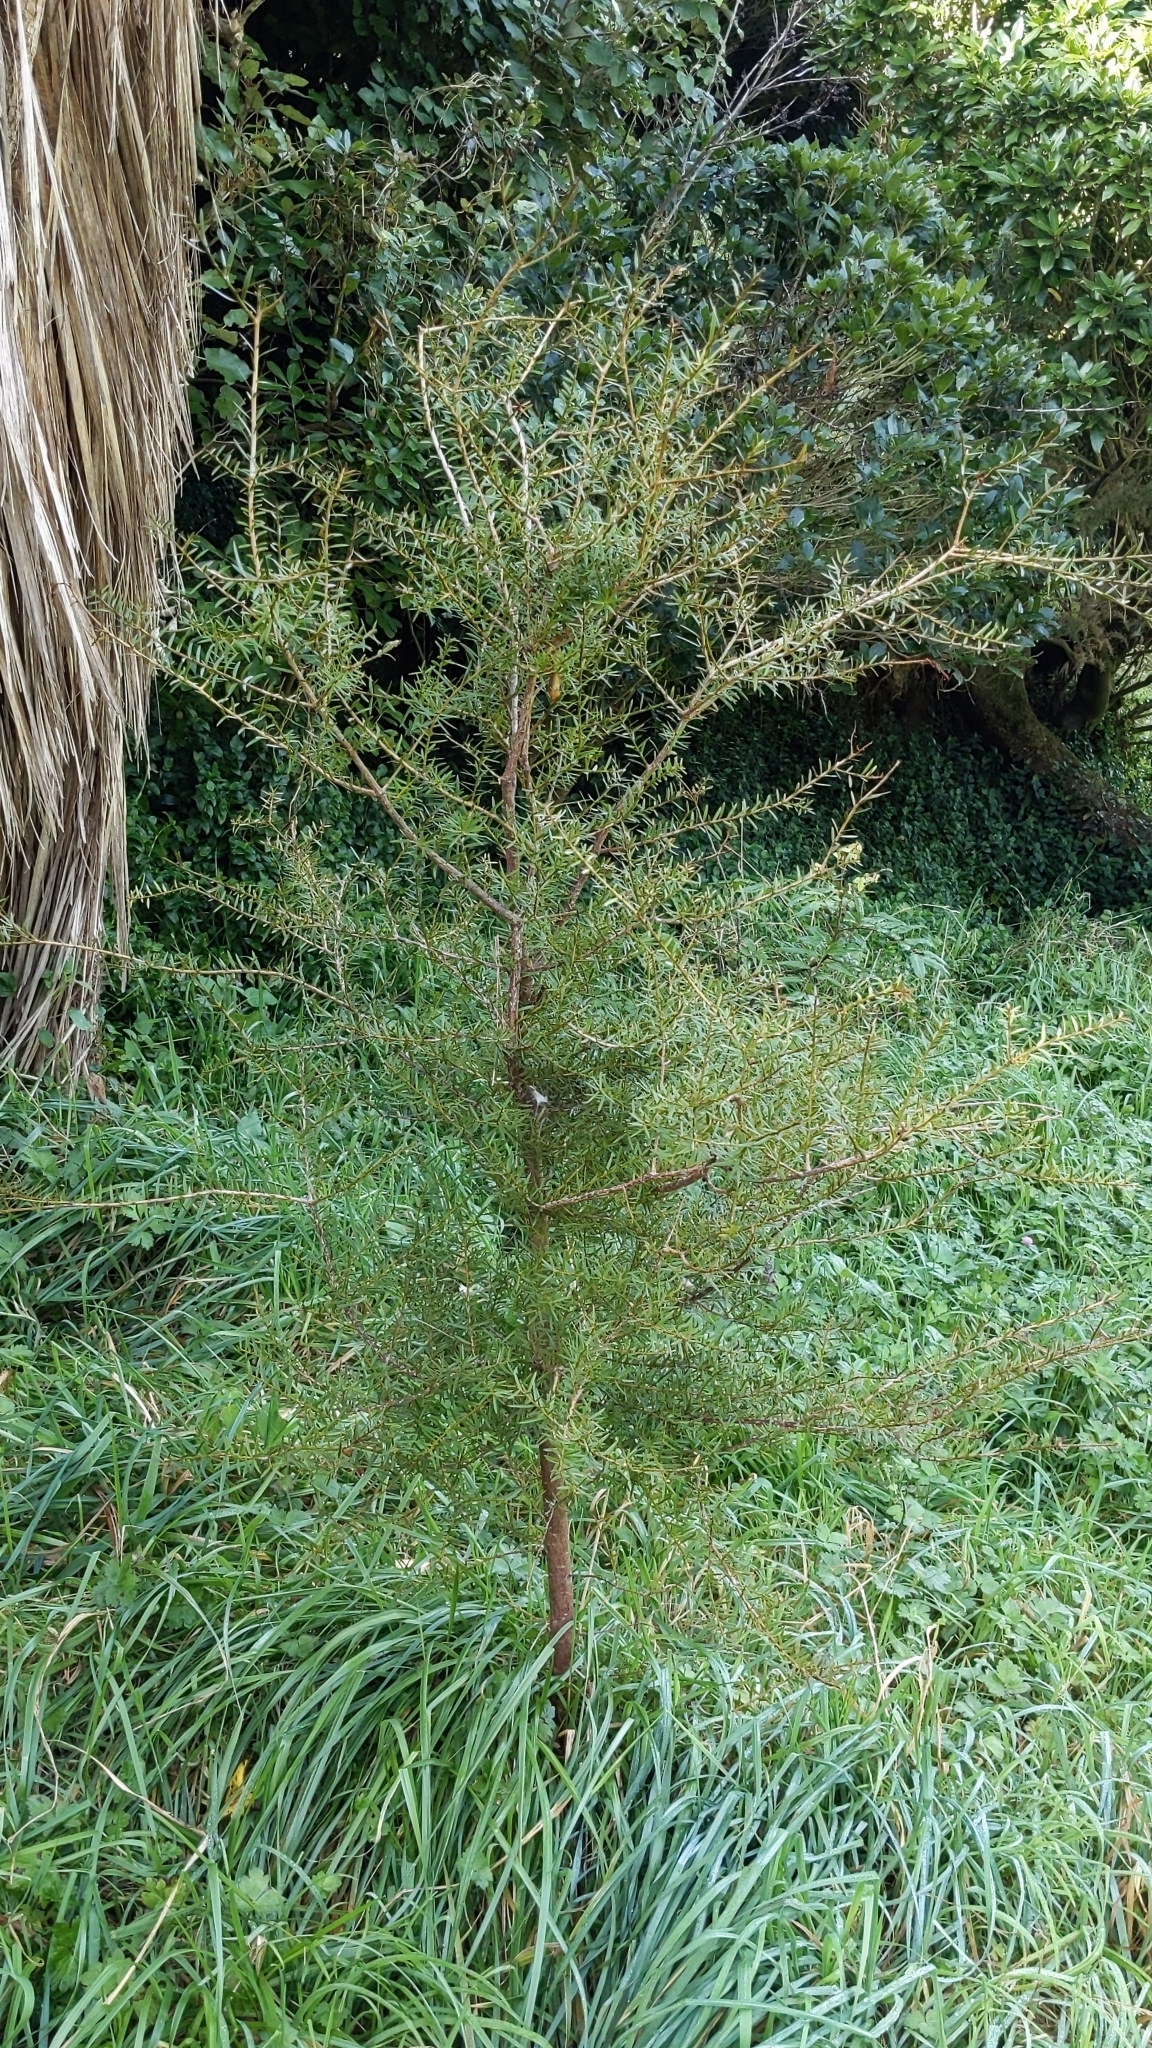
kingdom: Plantae
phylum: Tracheophyta
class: Pinopsida
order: Pinales
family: Podocarpaceae
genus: Podocarpus
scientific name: Podocarpus totara
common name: Totara
